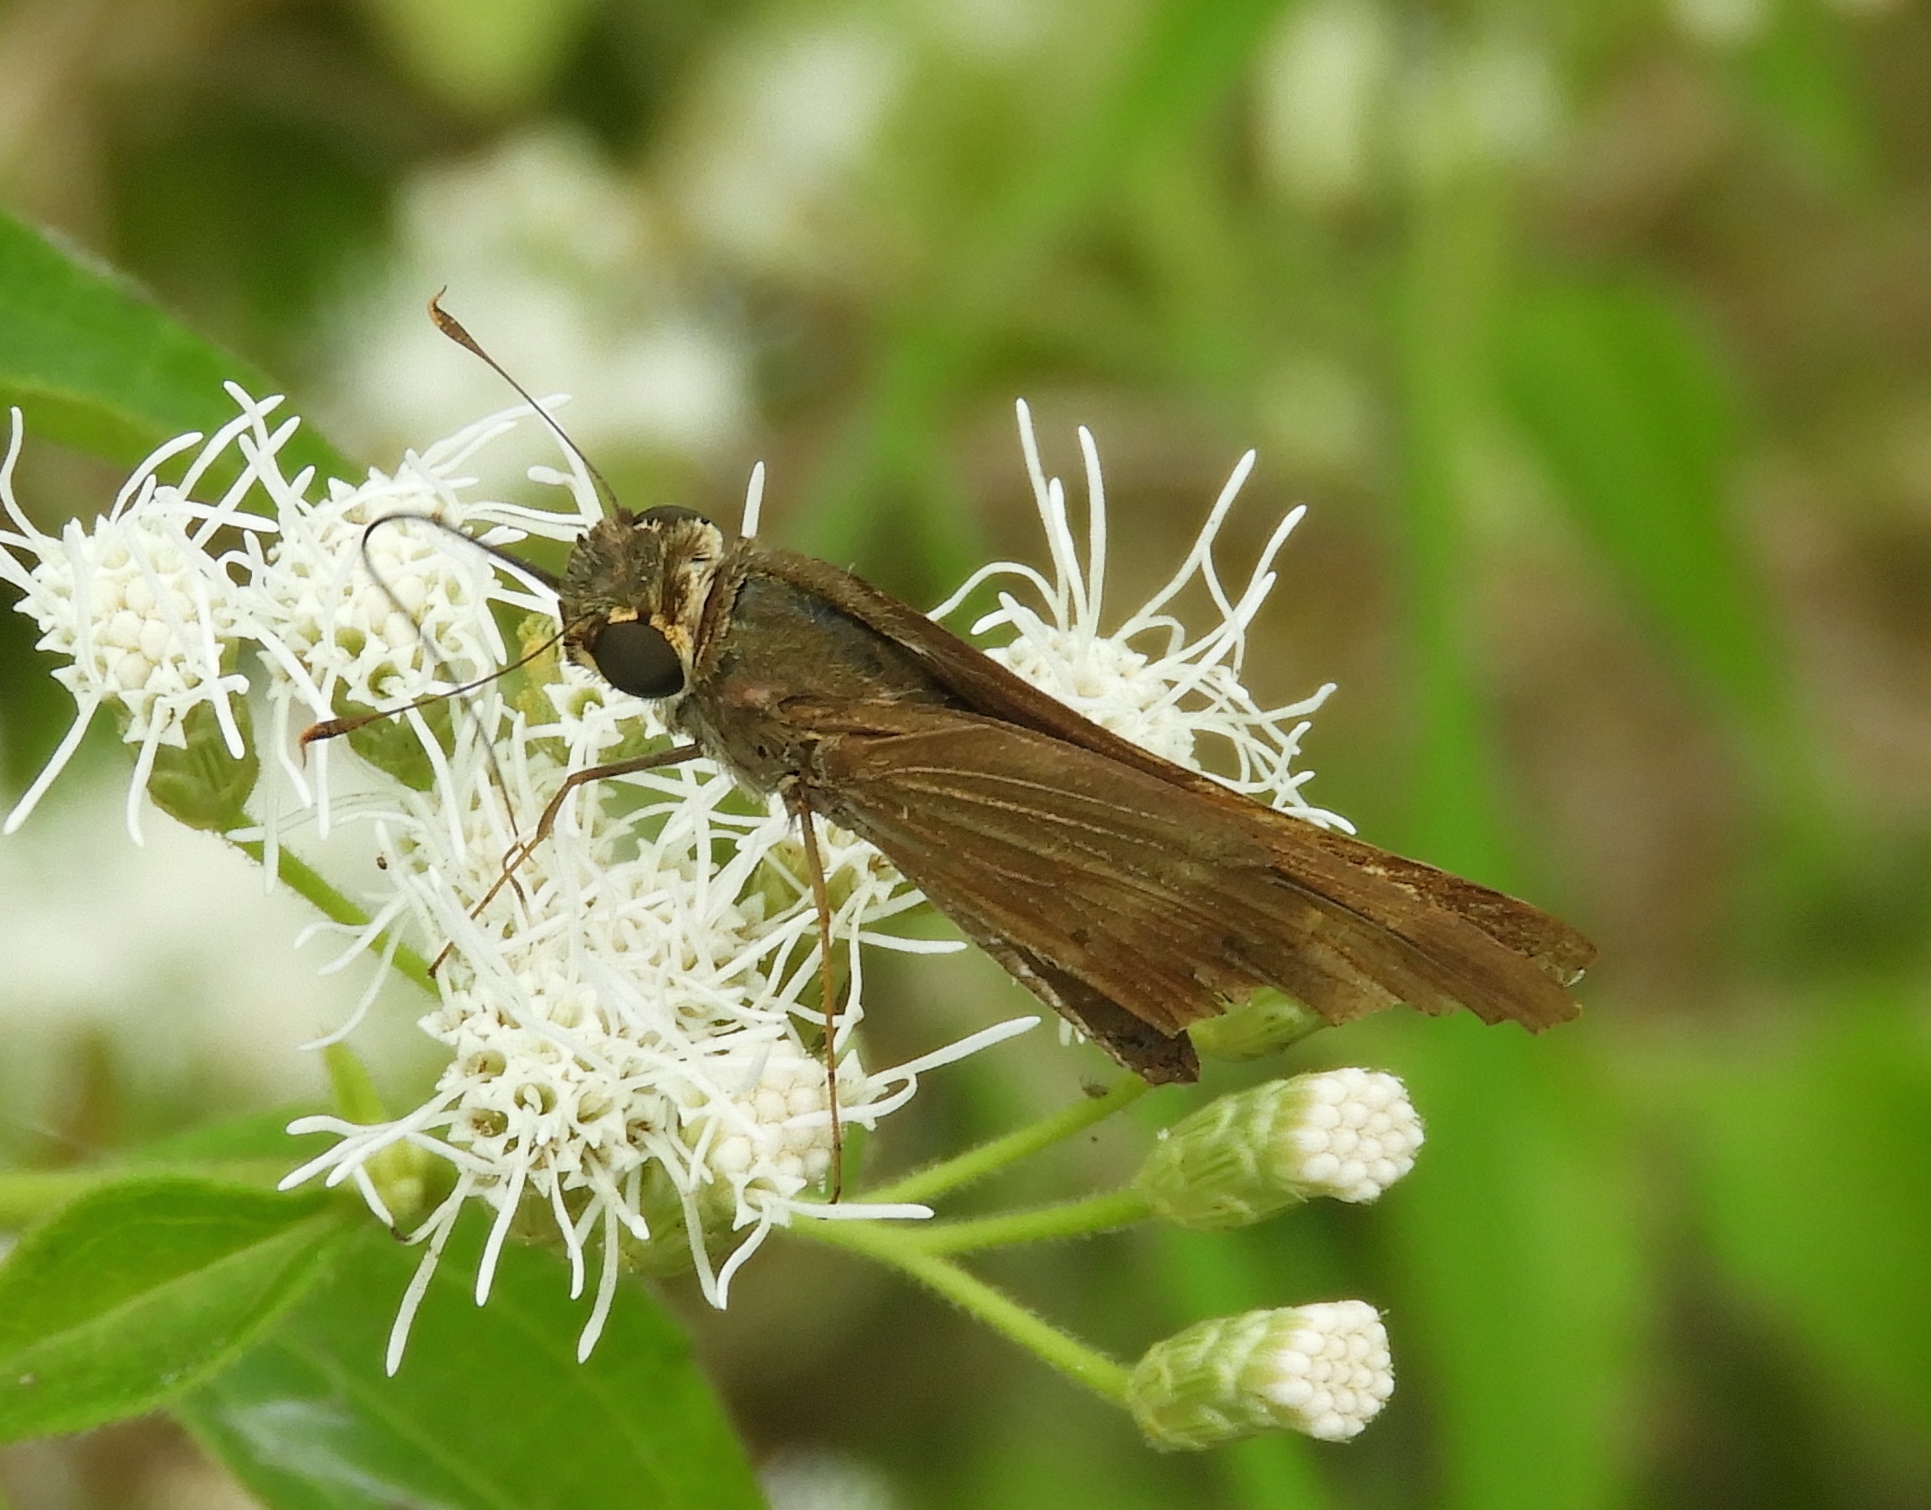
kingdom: Animalia
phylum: Arthropoda
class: Insecta
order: Lepidoptera
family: Hesperiidae
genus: Panoquina
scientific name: Panoquina
